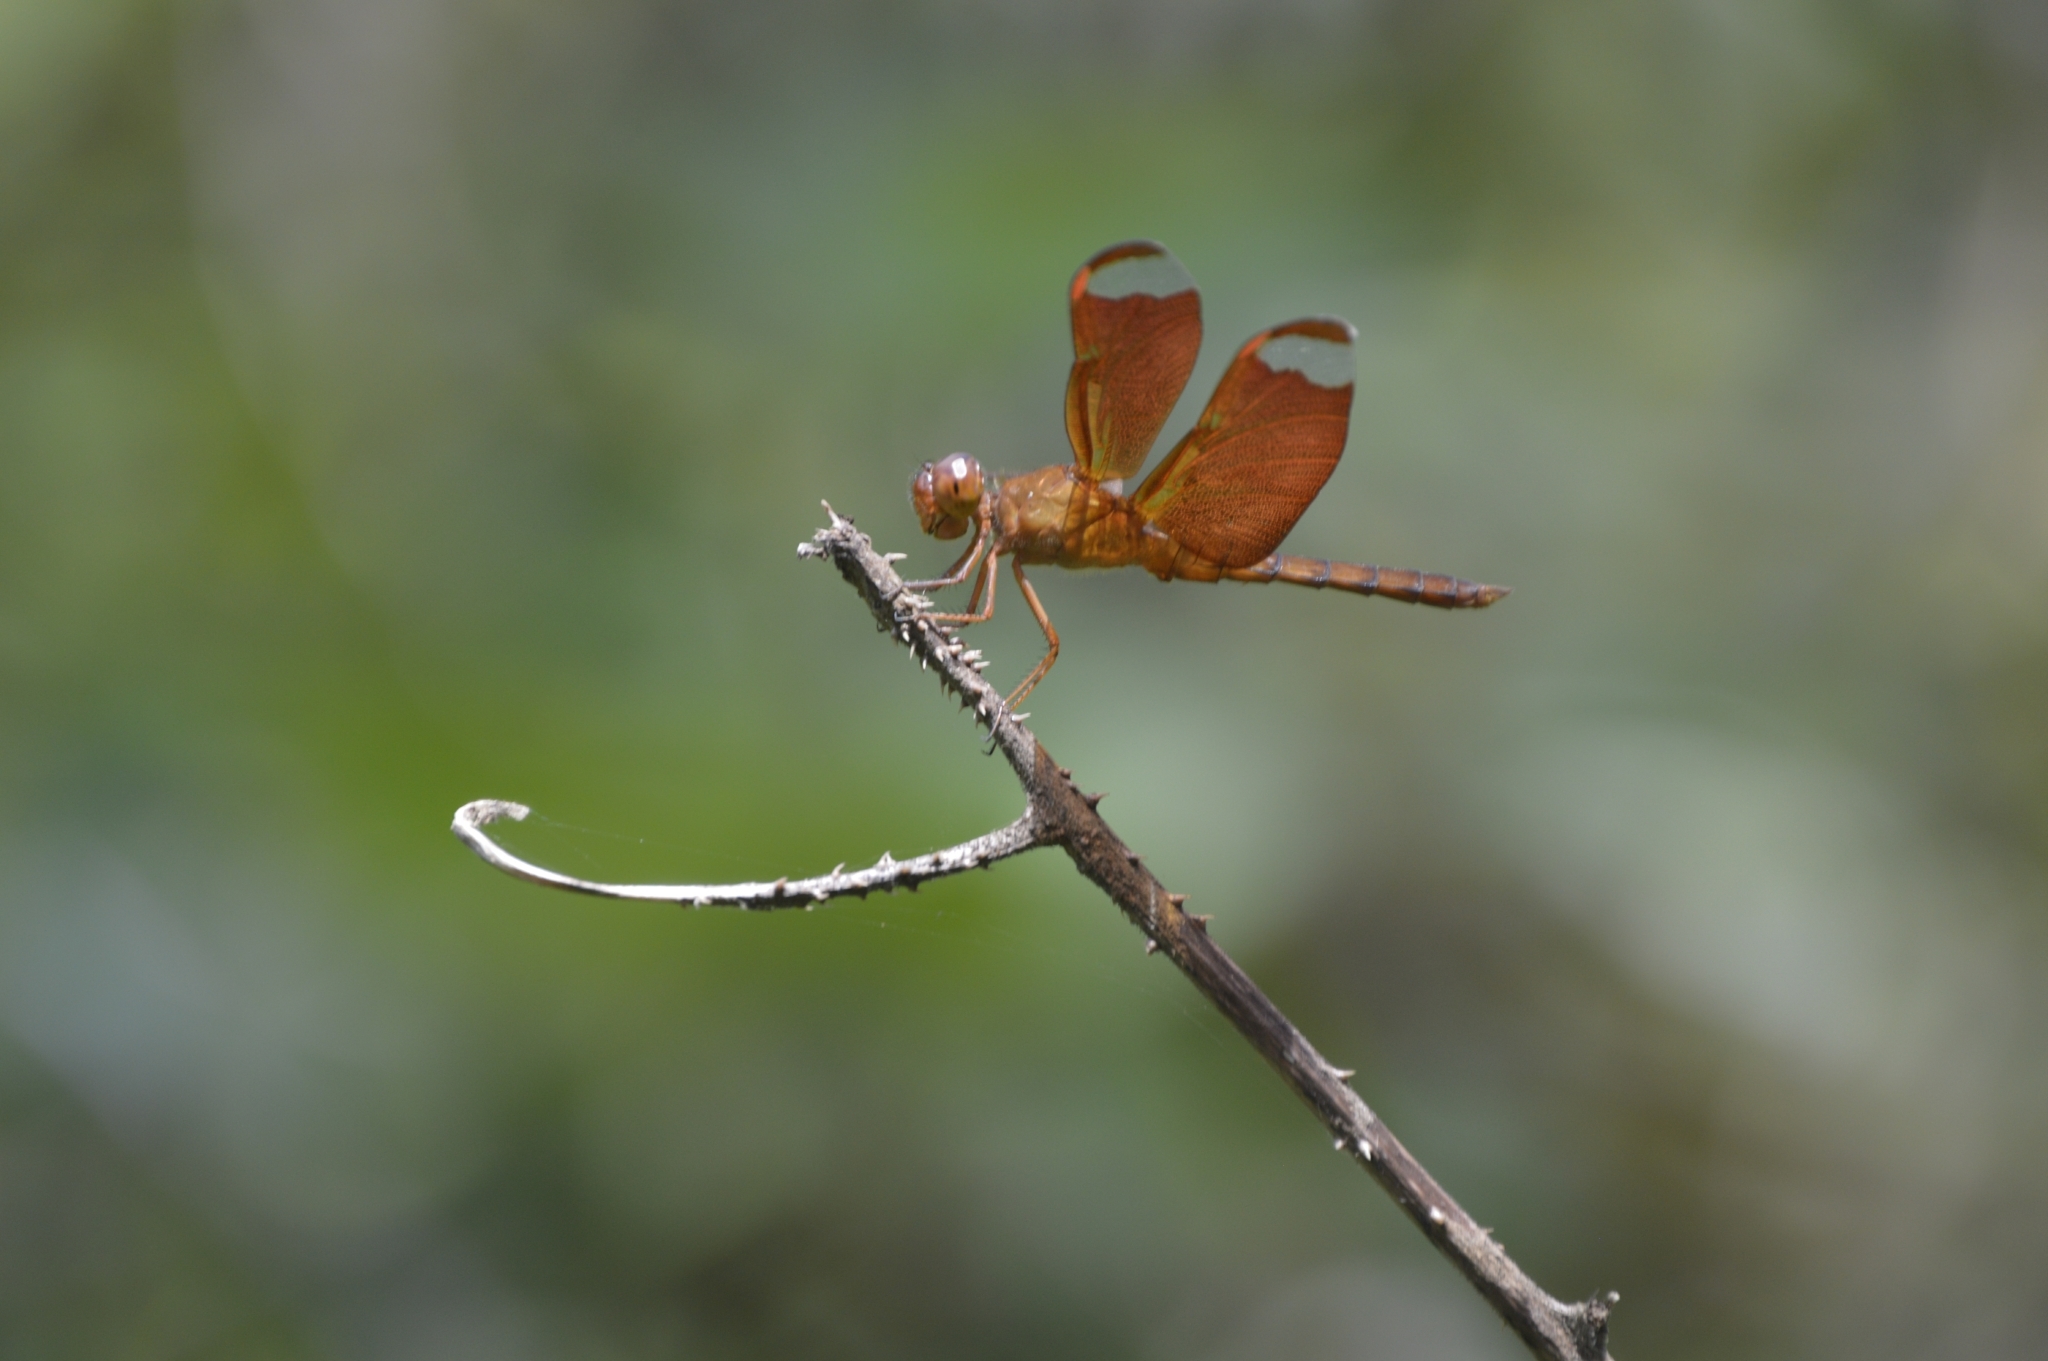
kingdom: Animalia
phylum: Arthropoda
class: Insecta
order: Odonata
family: Libellulidae
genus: Neurothemis
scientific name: Neurothemis fulvia
